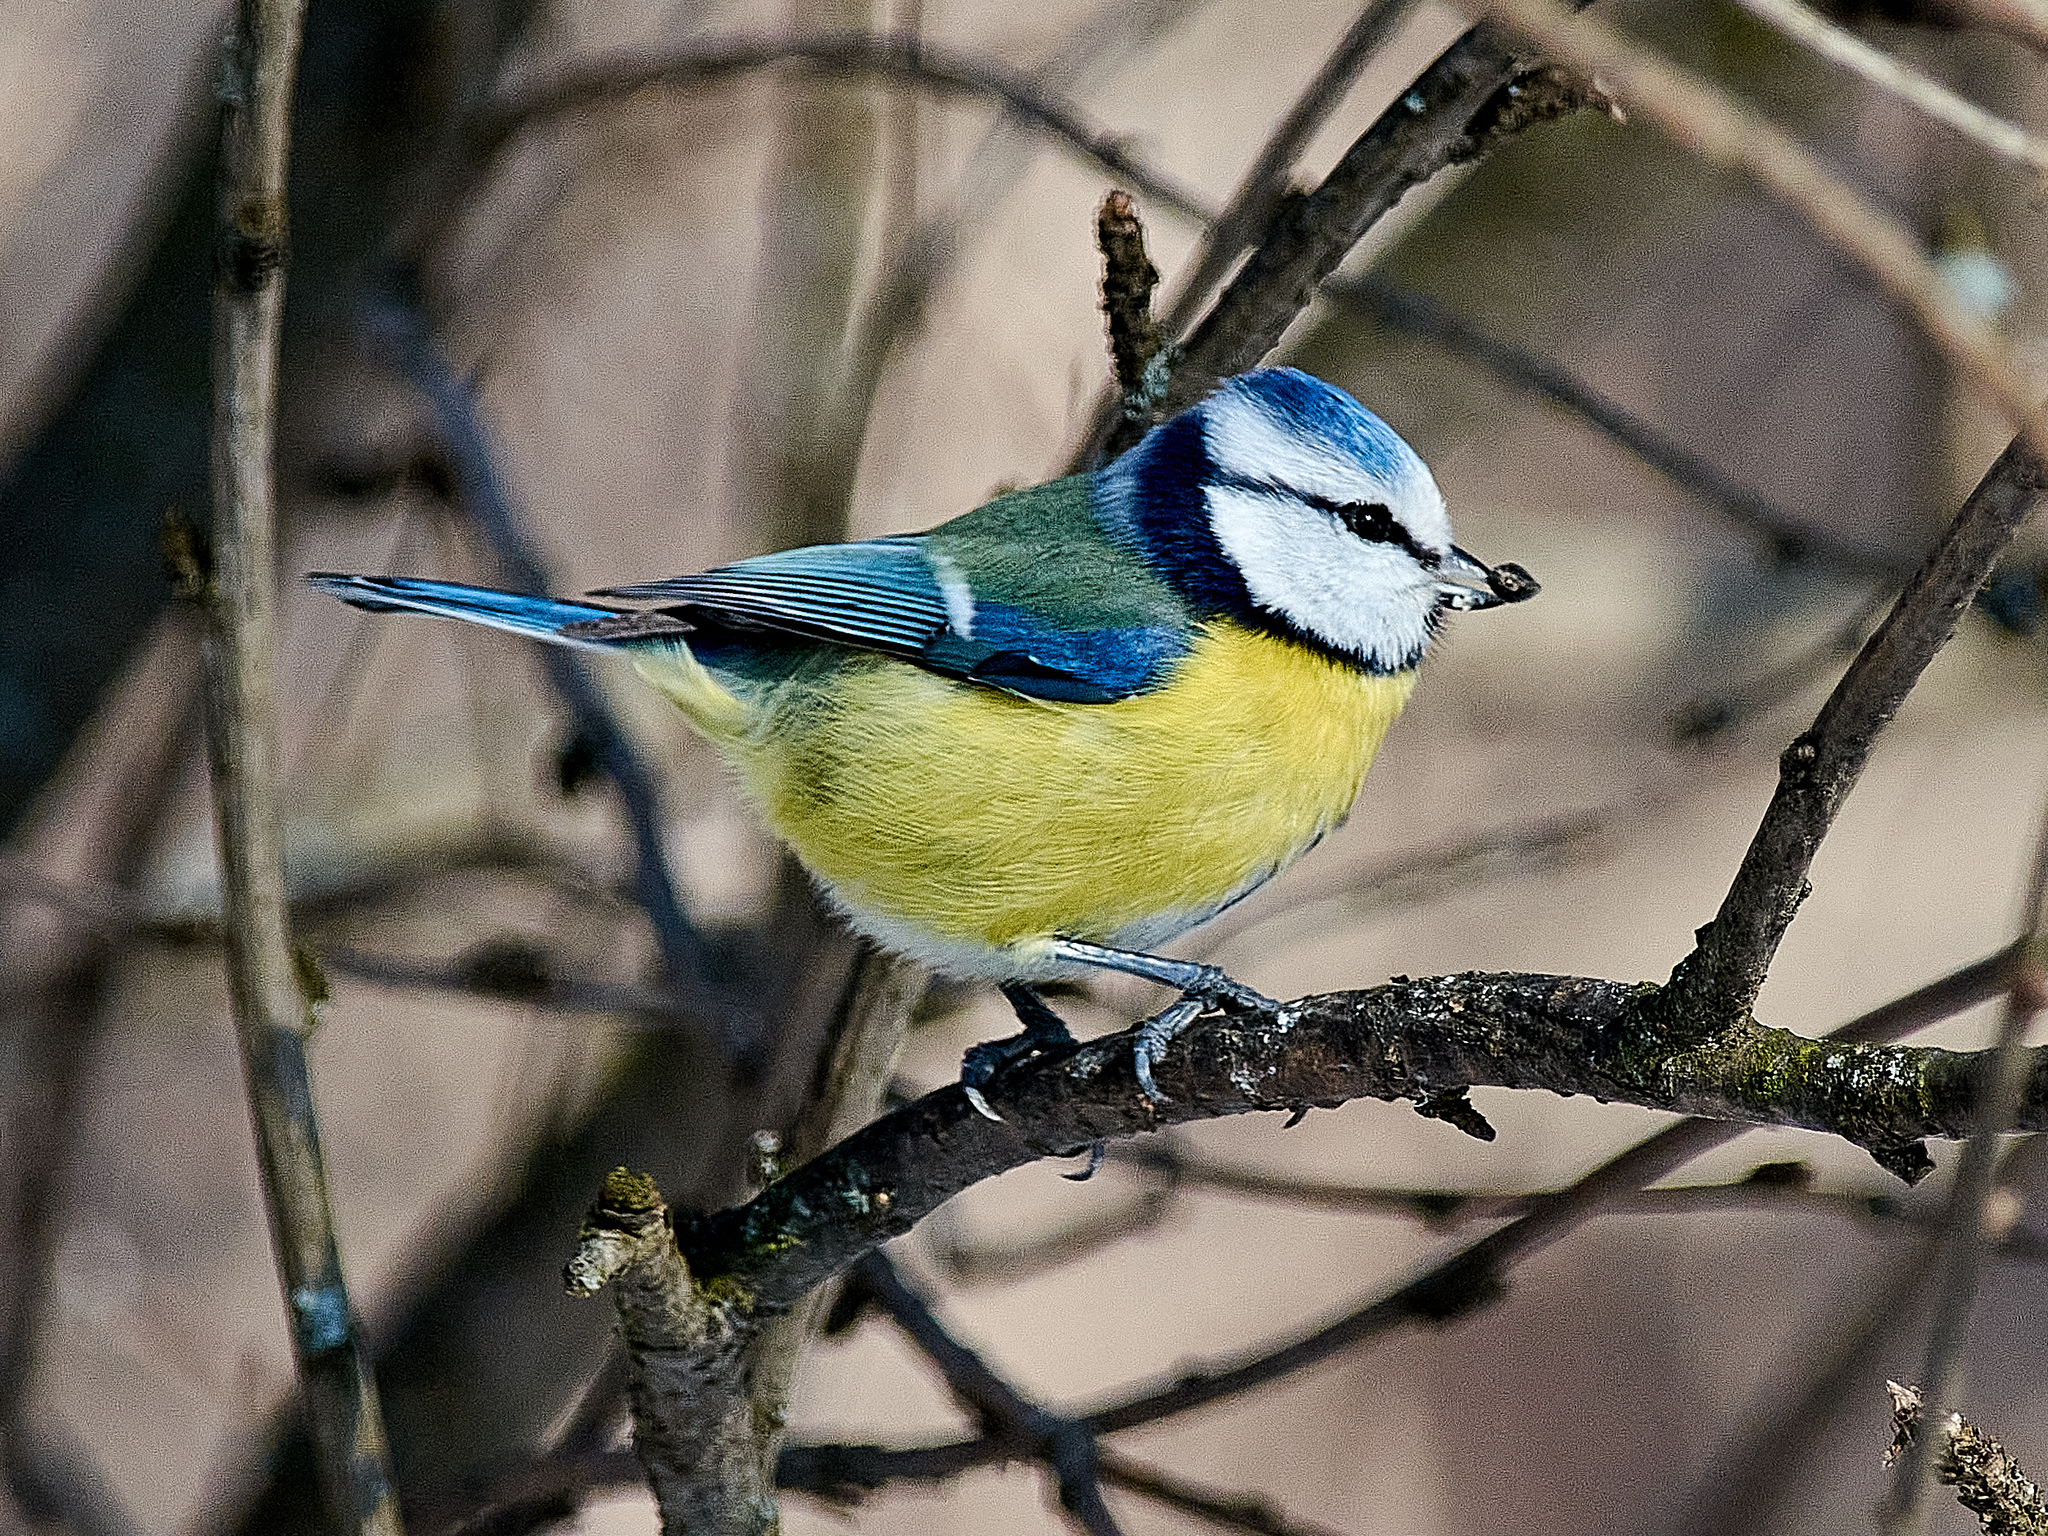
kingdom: Animalia
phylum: Chordata
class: Aves
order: Passeriformes
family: Paridae
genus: Cyanistes
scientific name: Cyanistes caeruleus
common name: Eurasian blue tit
